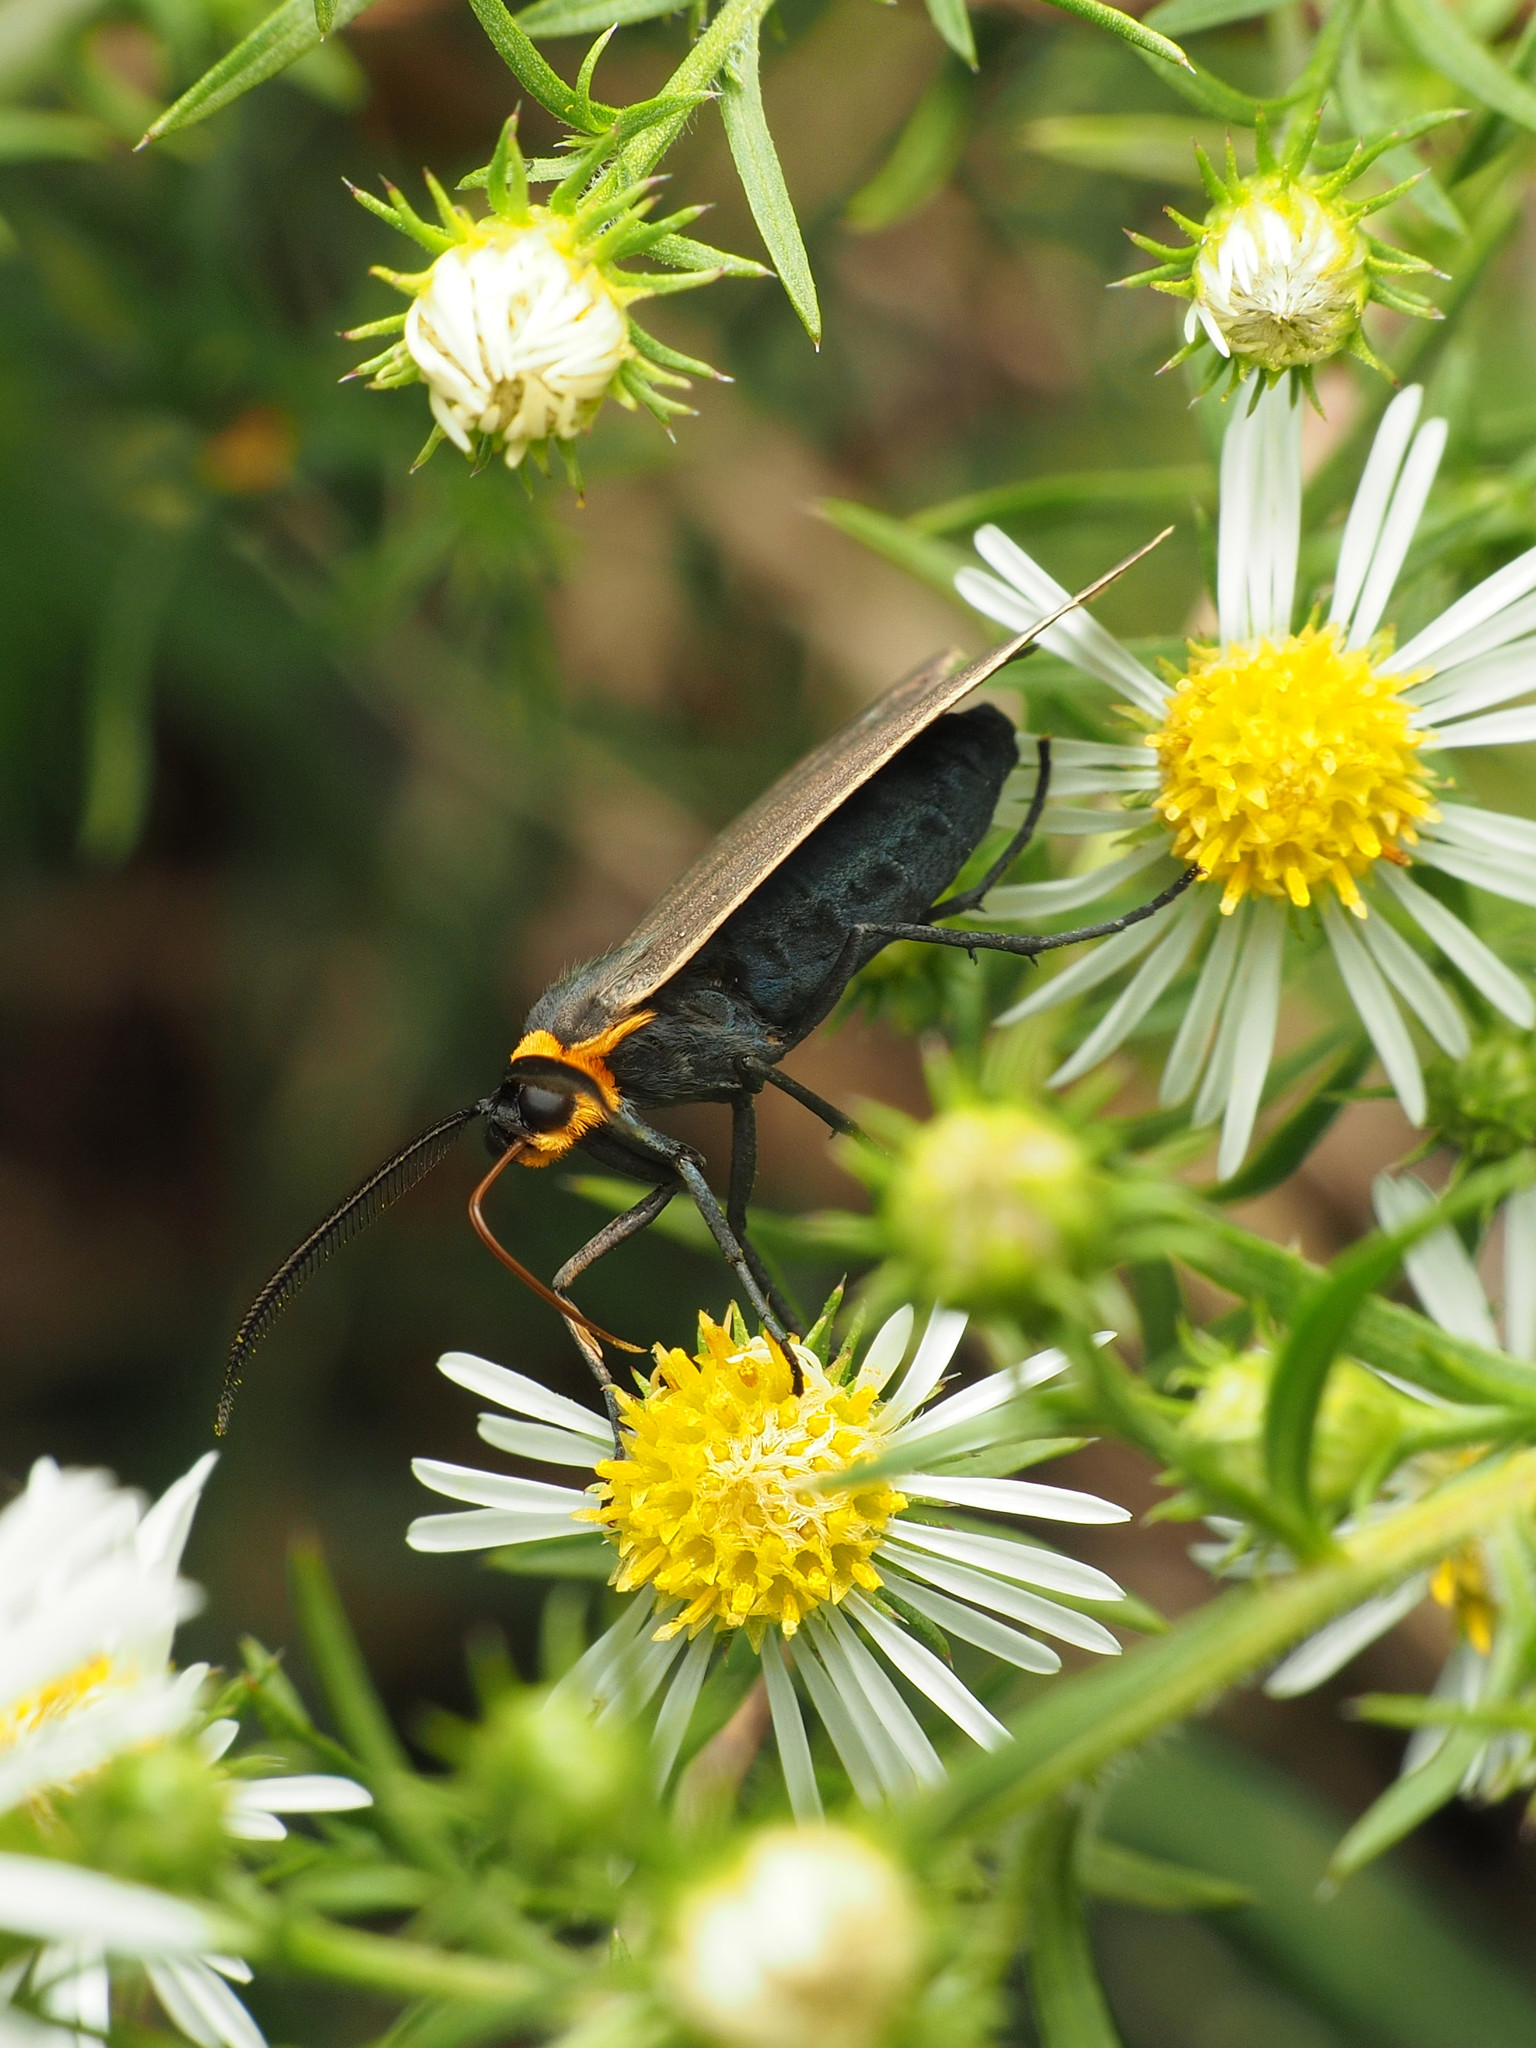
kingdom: Animalia
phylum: Arthropoda
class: Insecta
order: Lepidoptera
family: Erebidae
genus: Cisseps
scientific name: Cisseps fulvicollis
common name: Yellow-collared scape moth
